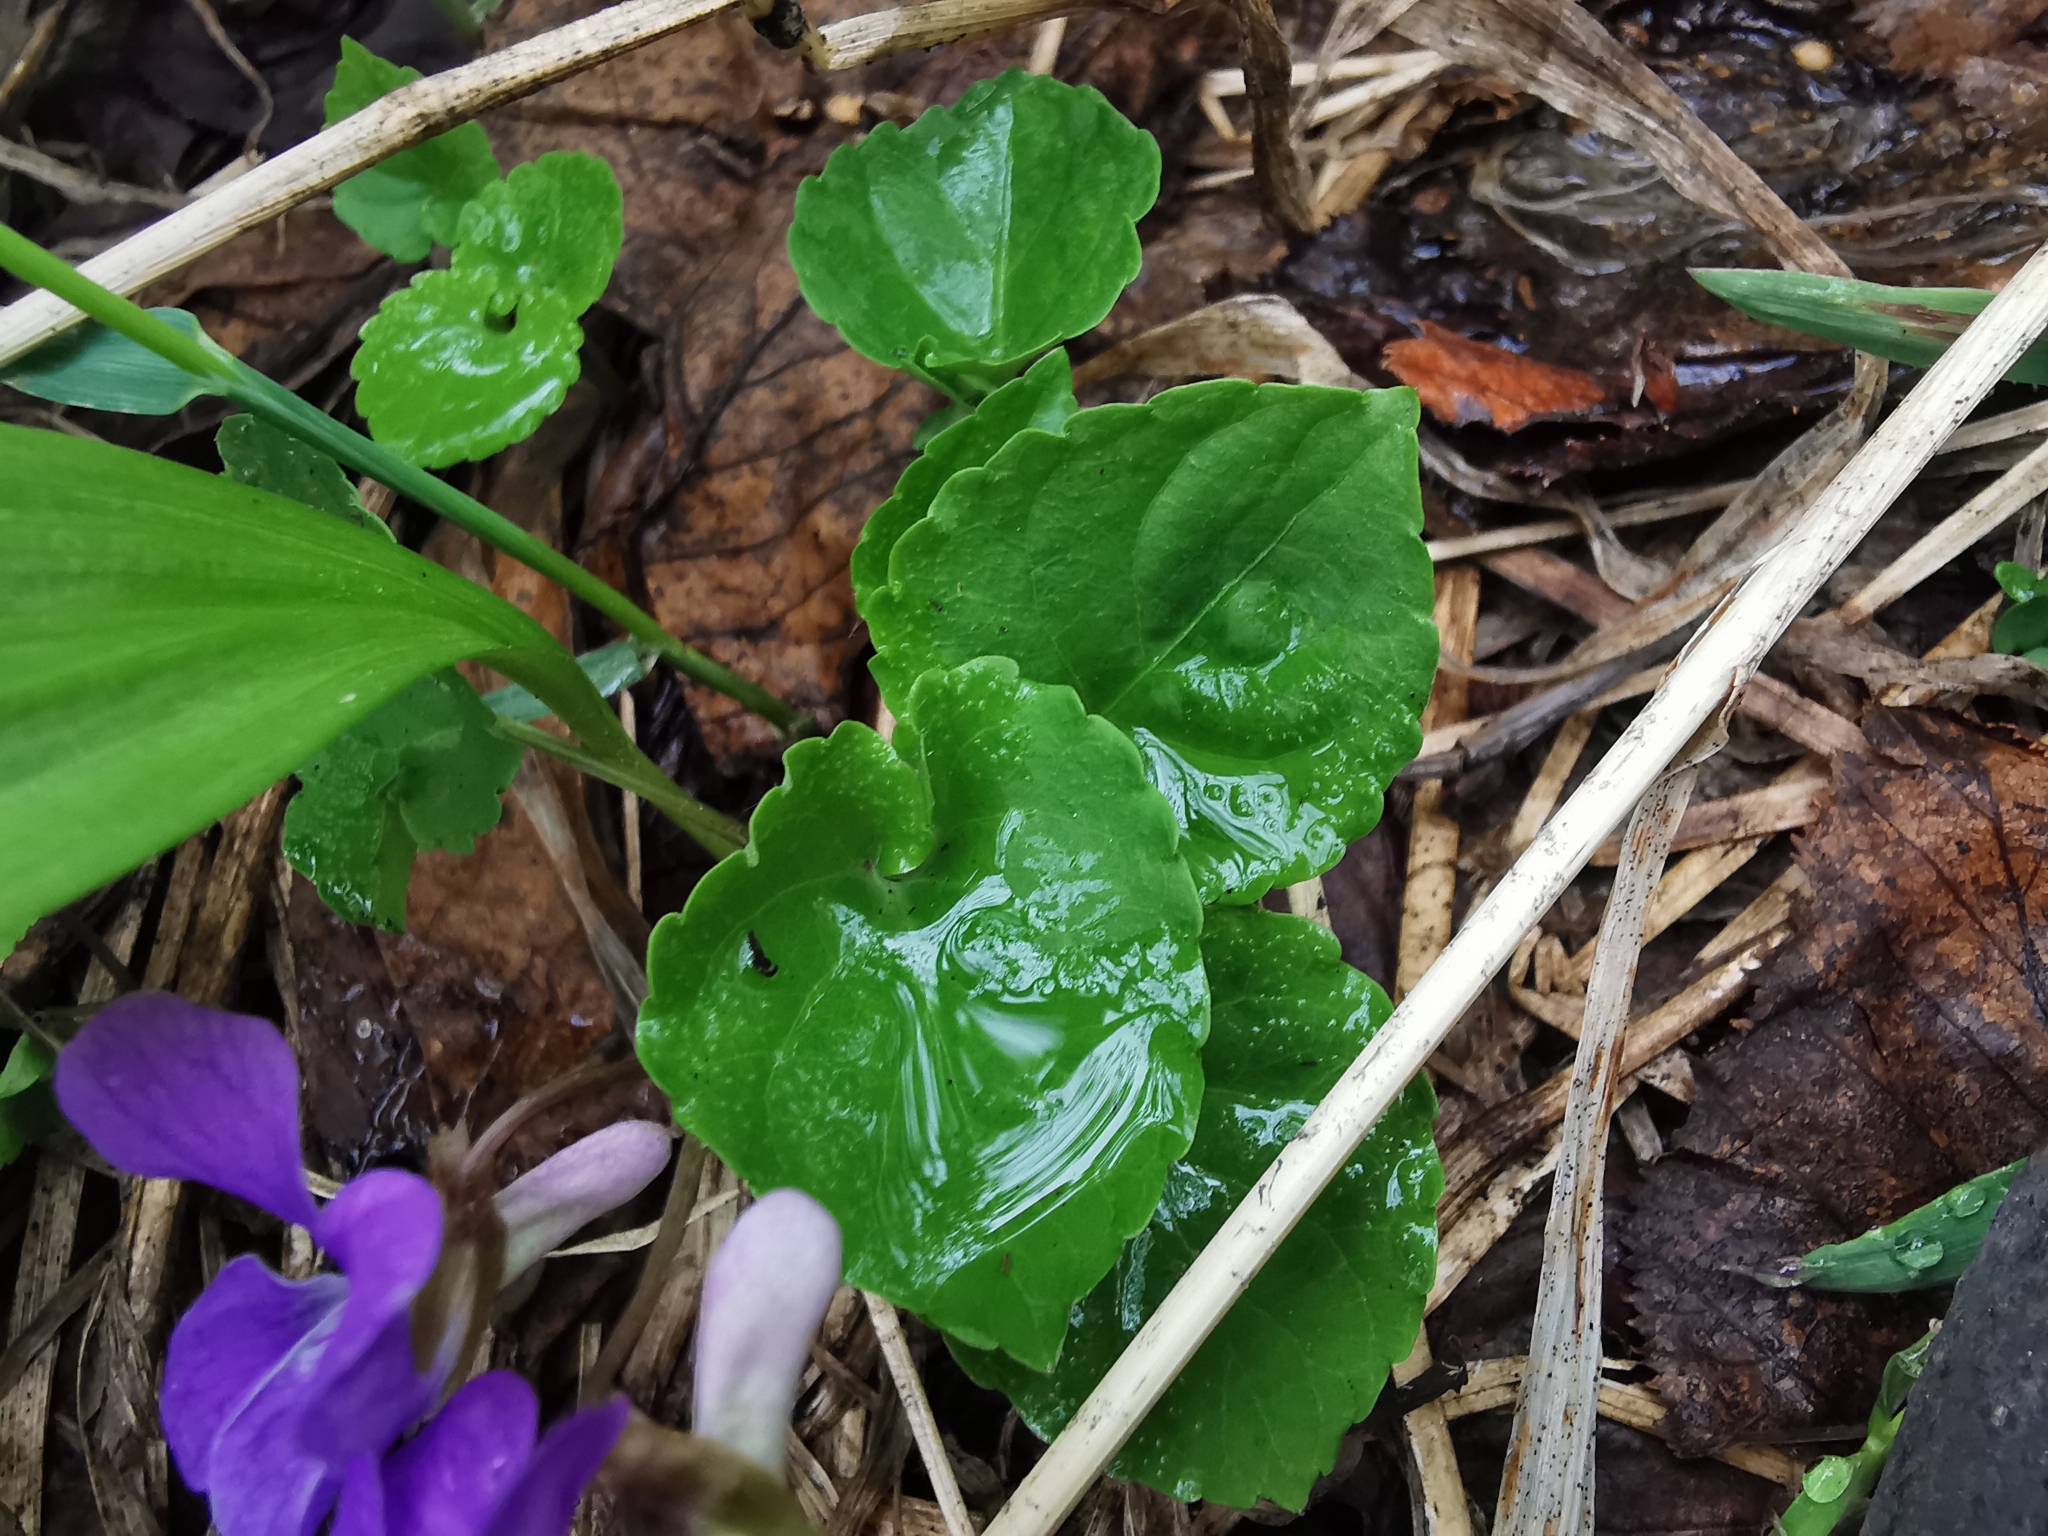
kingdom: Plantae
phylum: Tracheophyta
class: Magnoliopsida
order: Malpighiales
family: Violaceae
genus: Viola
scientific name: Viola selkirkii
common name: Selkirk's violet
